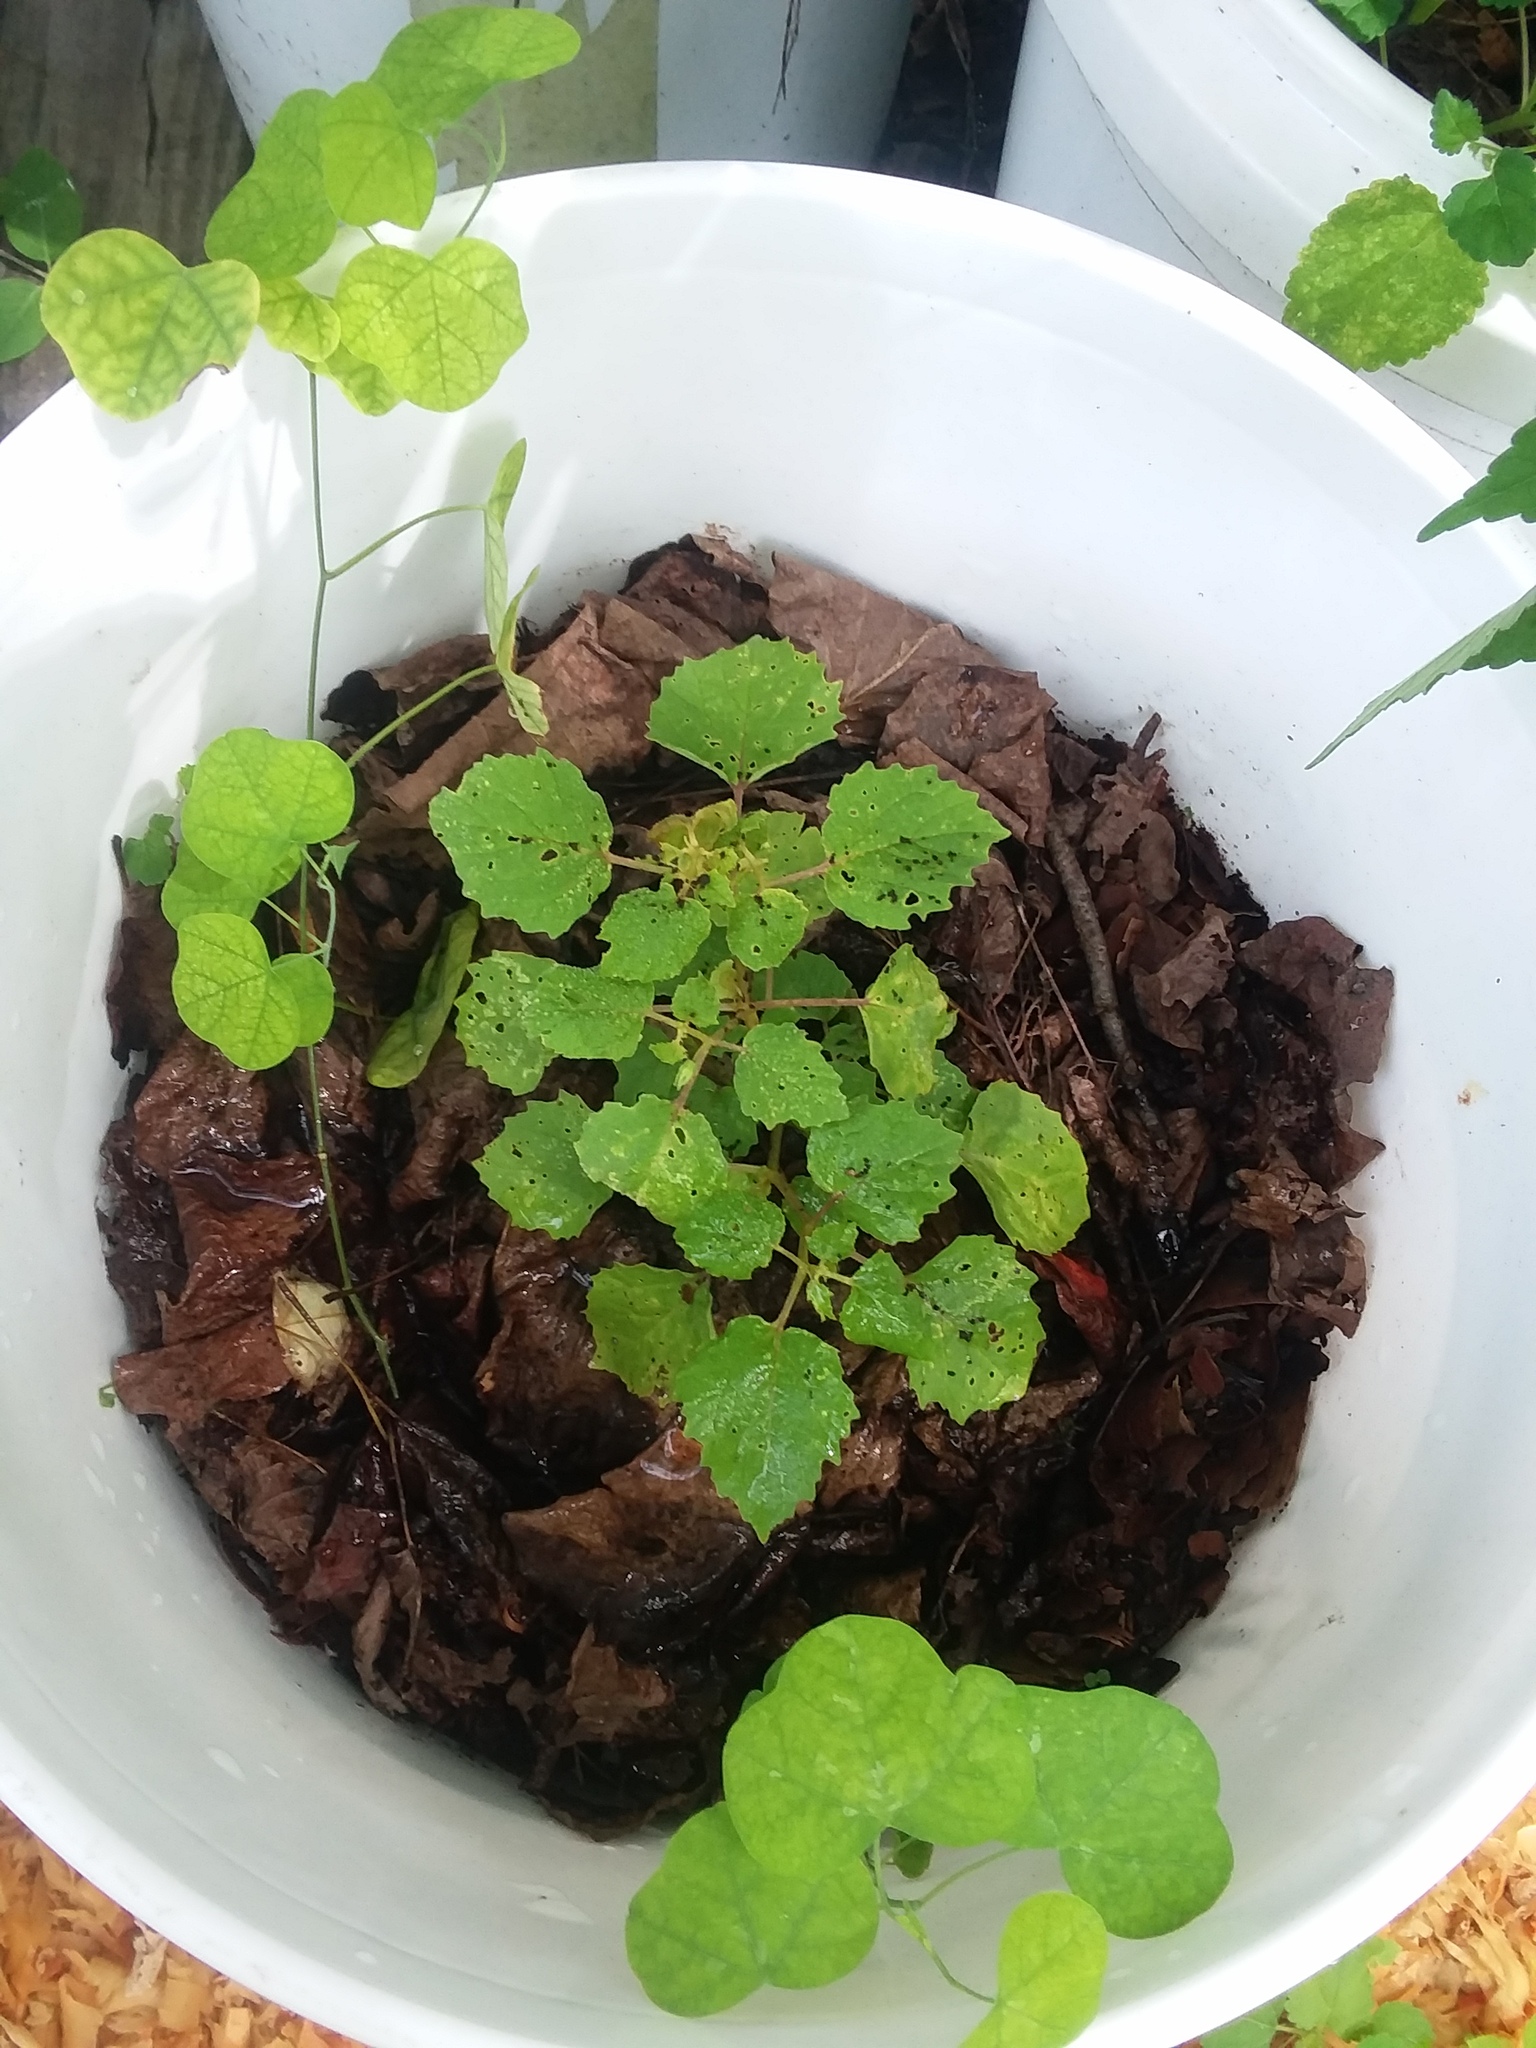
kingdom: Plantae
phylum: Tracheophyta
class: Magnoliopsida
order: Malpighiales
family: Passifloraceae
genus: Passiflora
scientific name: Passiflora lutea
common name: Yellow passionflower
